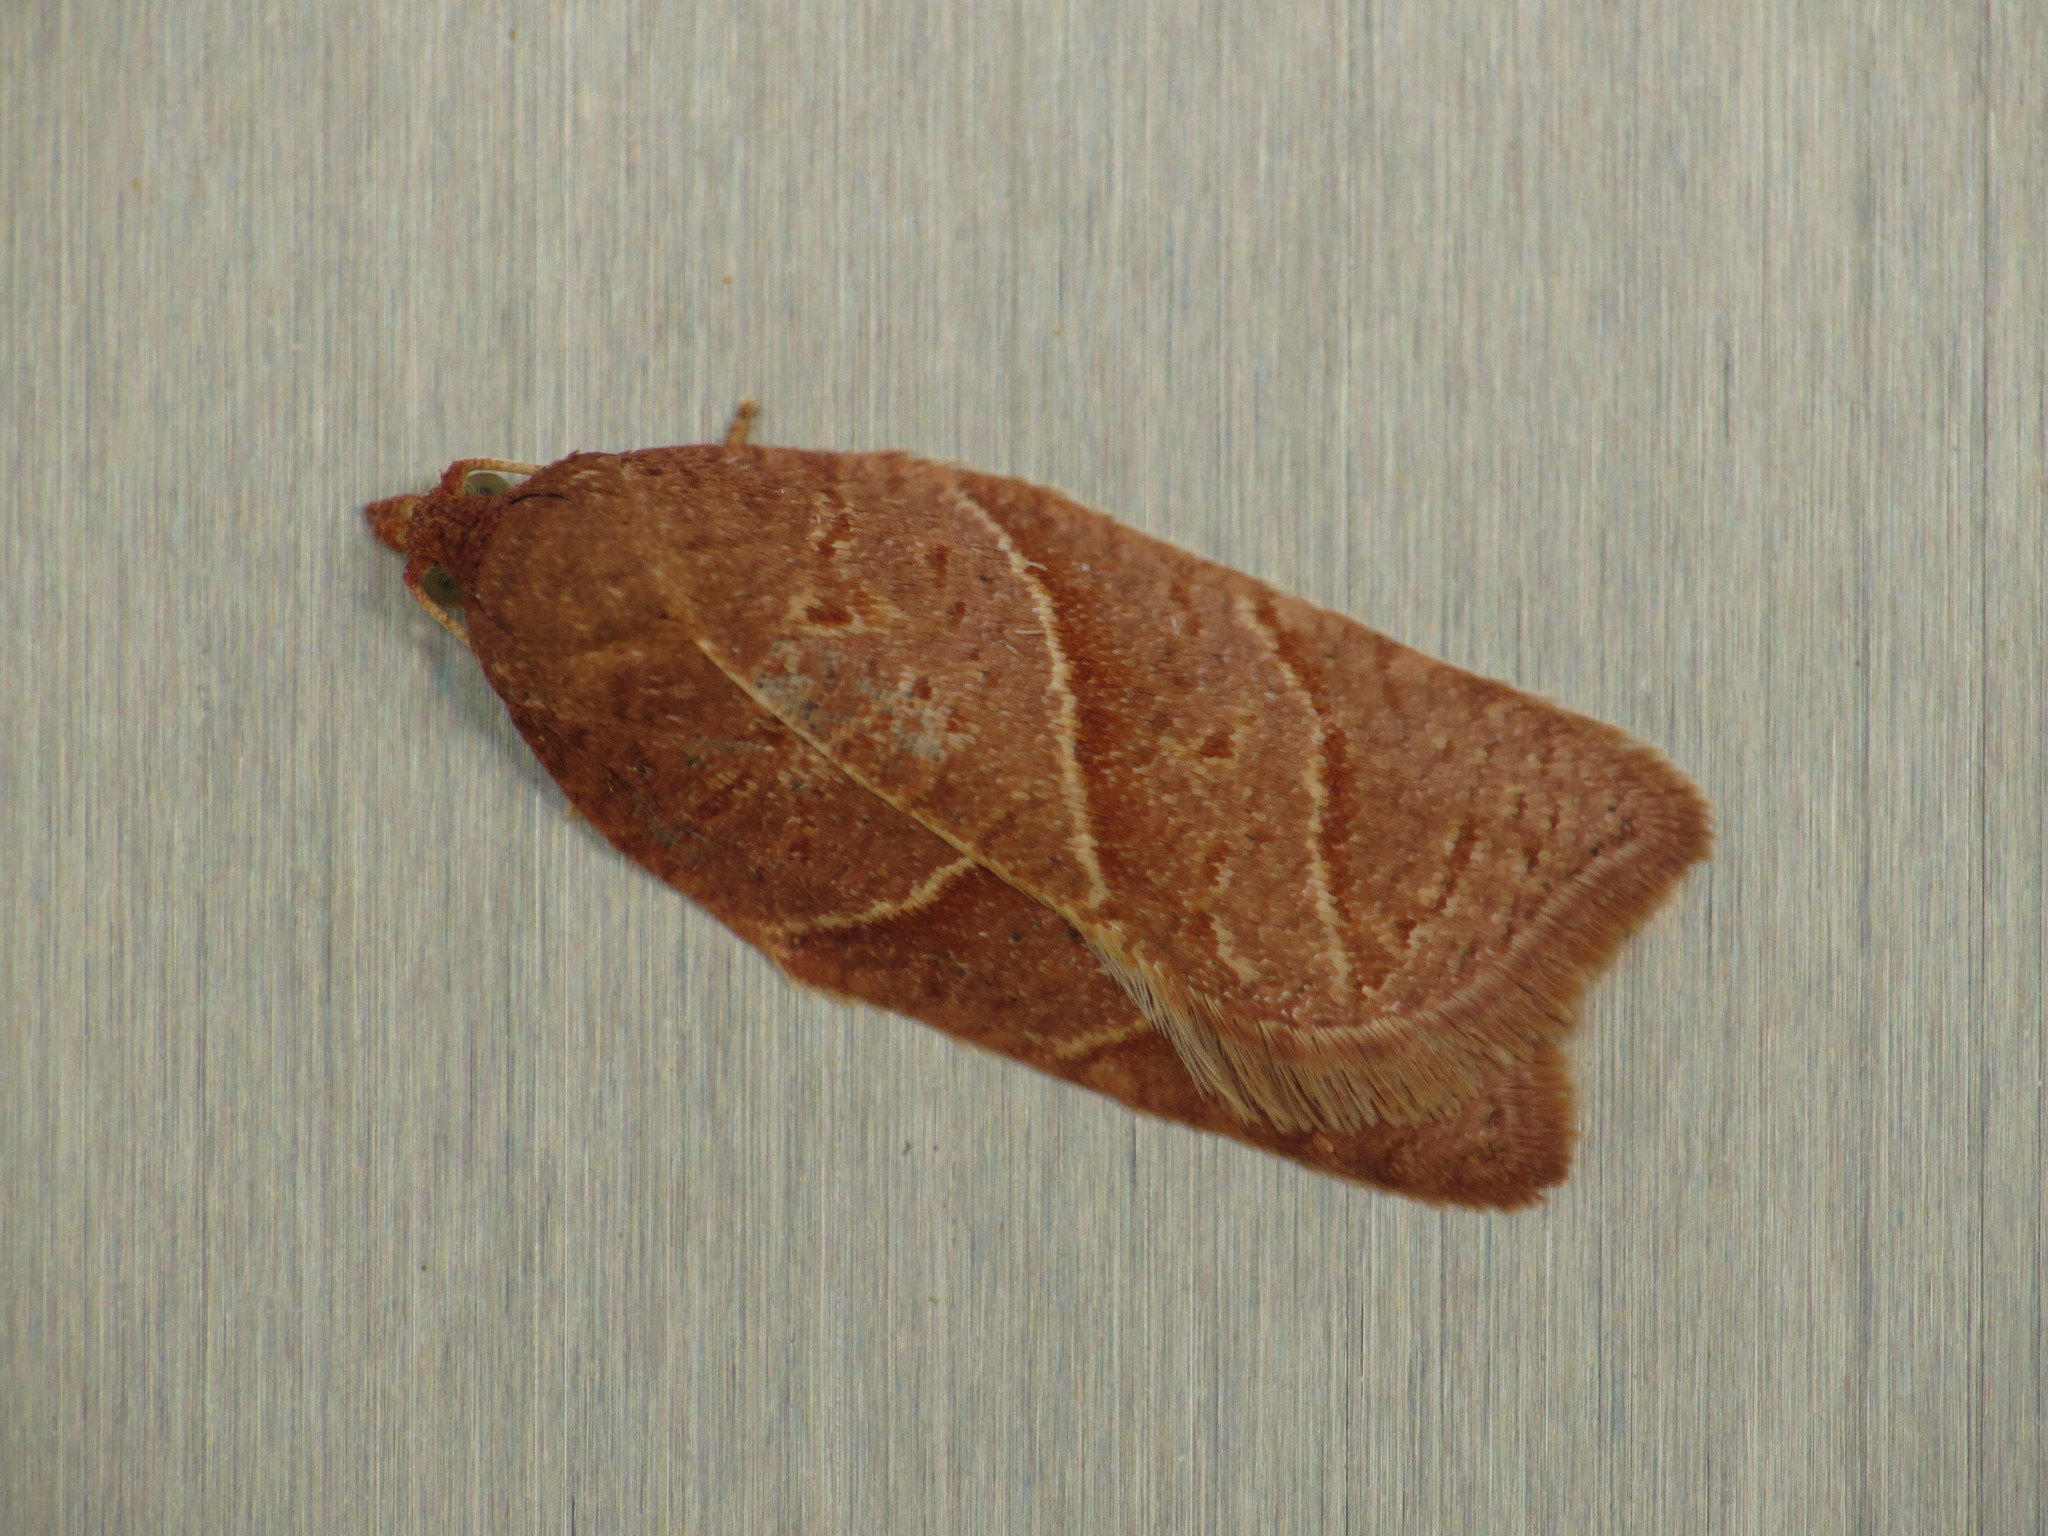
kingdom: Animalia
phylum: Arthropoda
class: Insecta
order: Lepidoptera
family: Tortricidae
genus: Acleris
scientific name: Acleris platynotana
